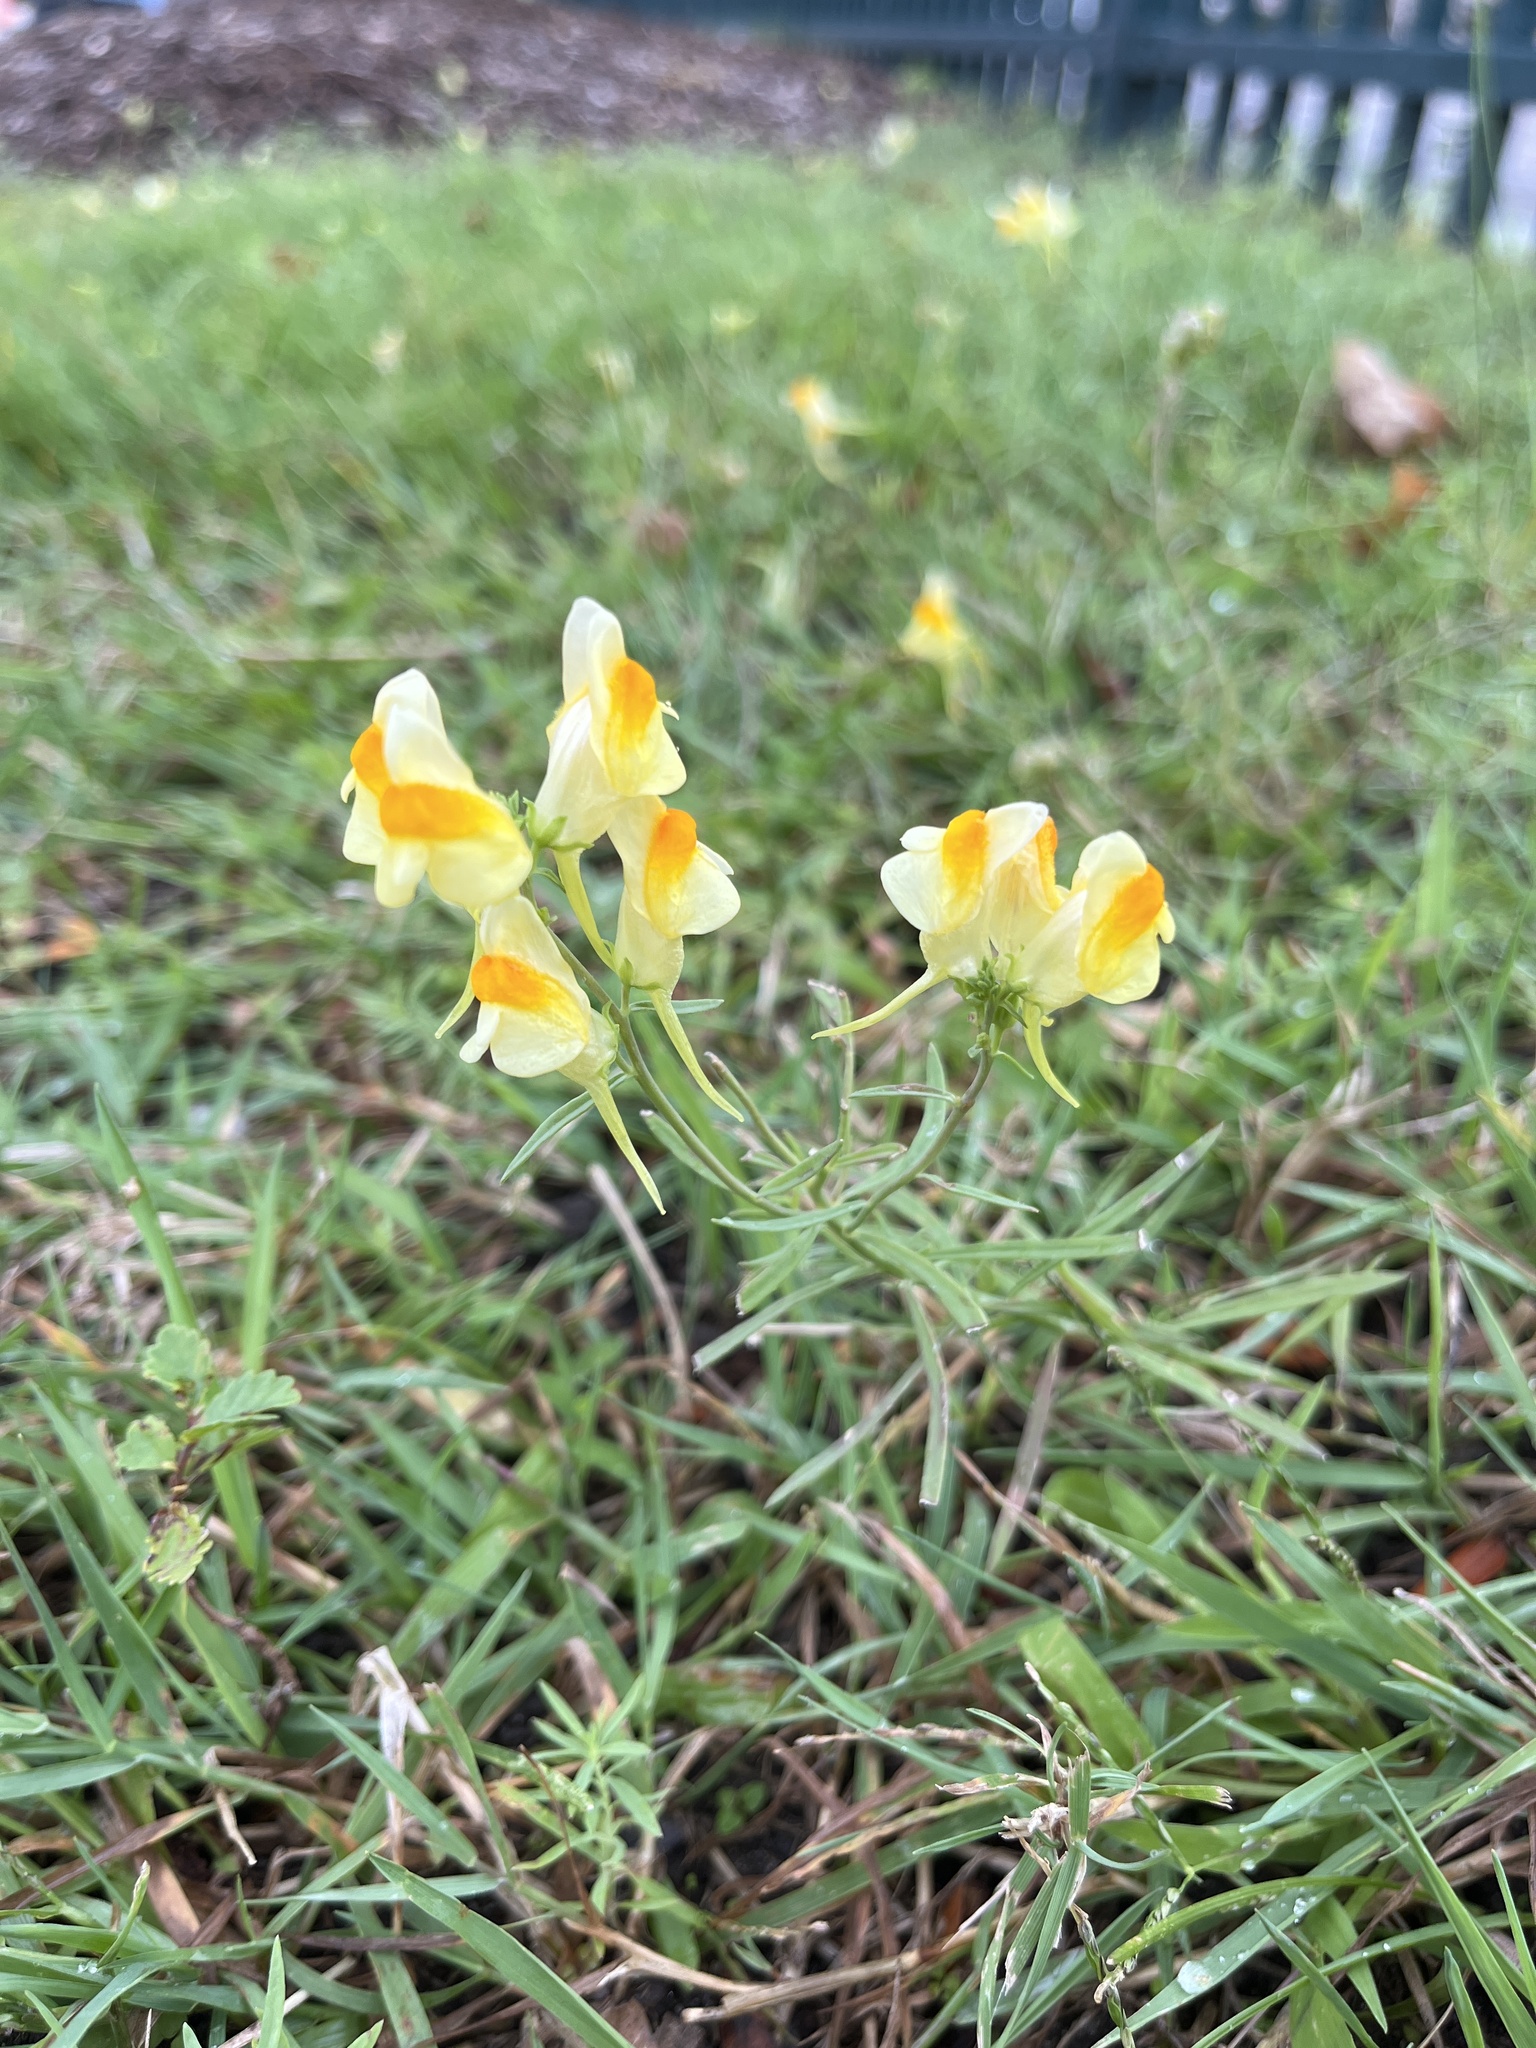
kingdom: Plantae
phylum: Tracheophyta
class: Magnoliopsida
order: Lamiales
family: Plantaginaceae
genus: Linaria
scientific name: Linaria vulgaris
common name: Butter and eggs
